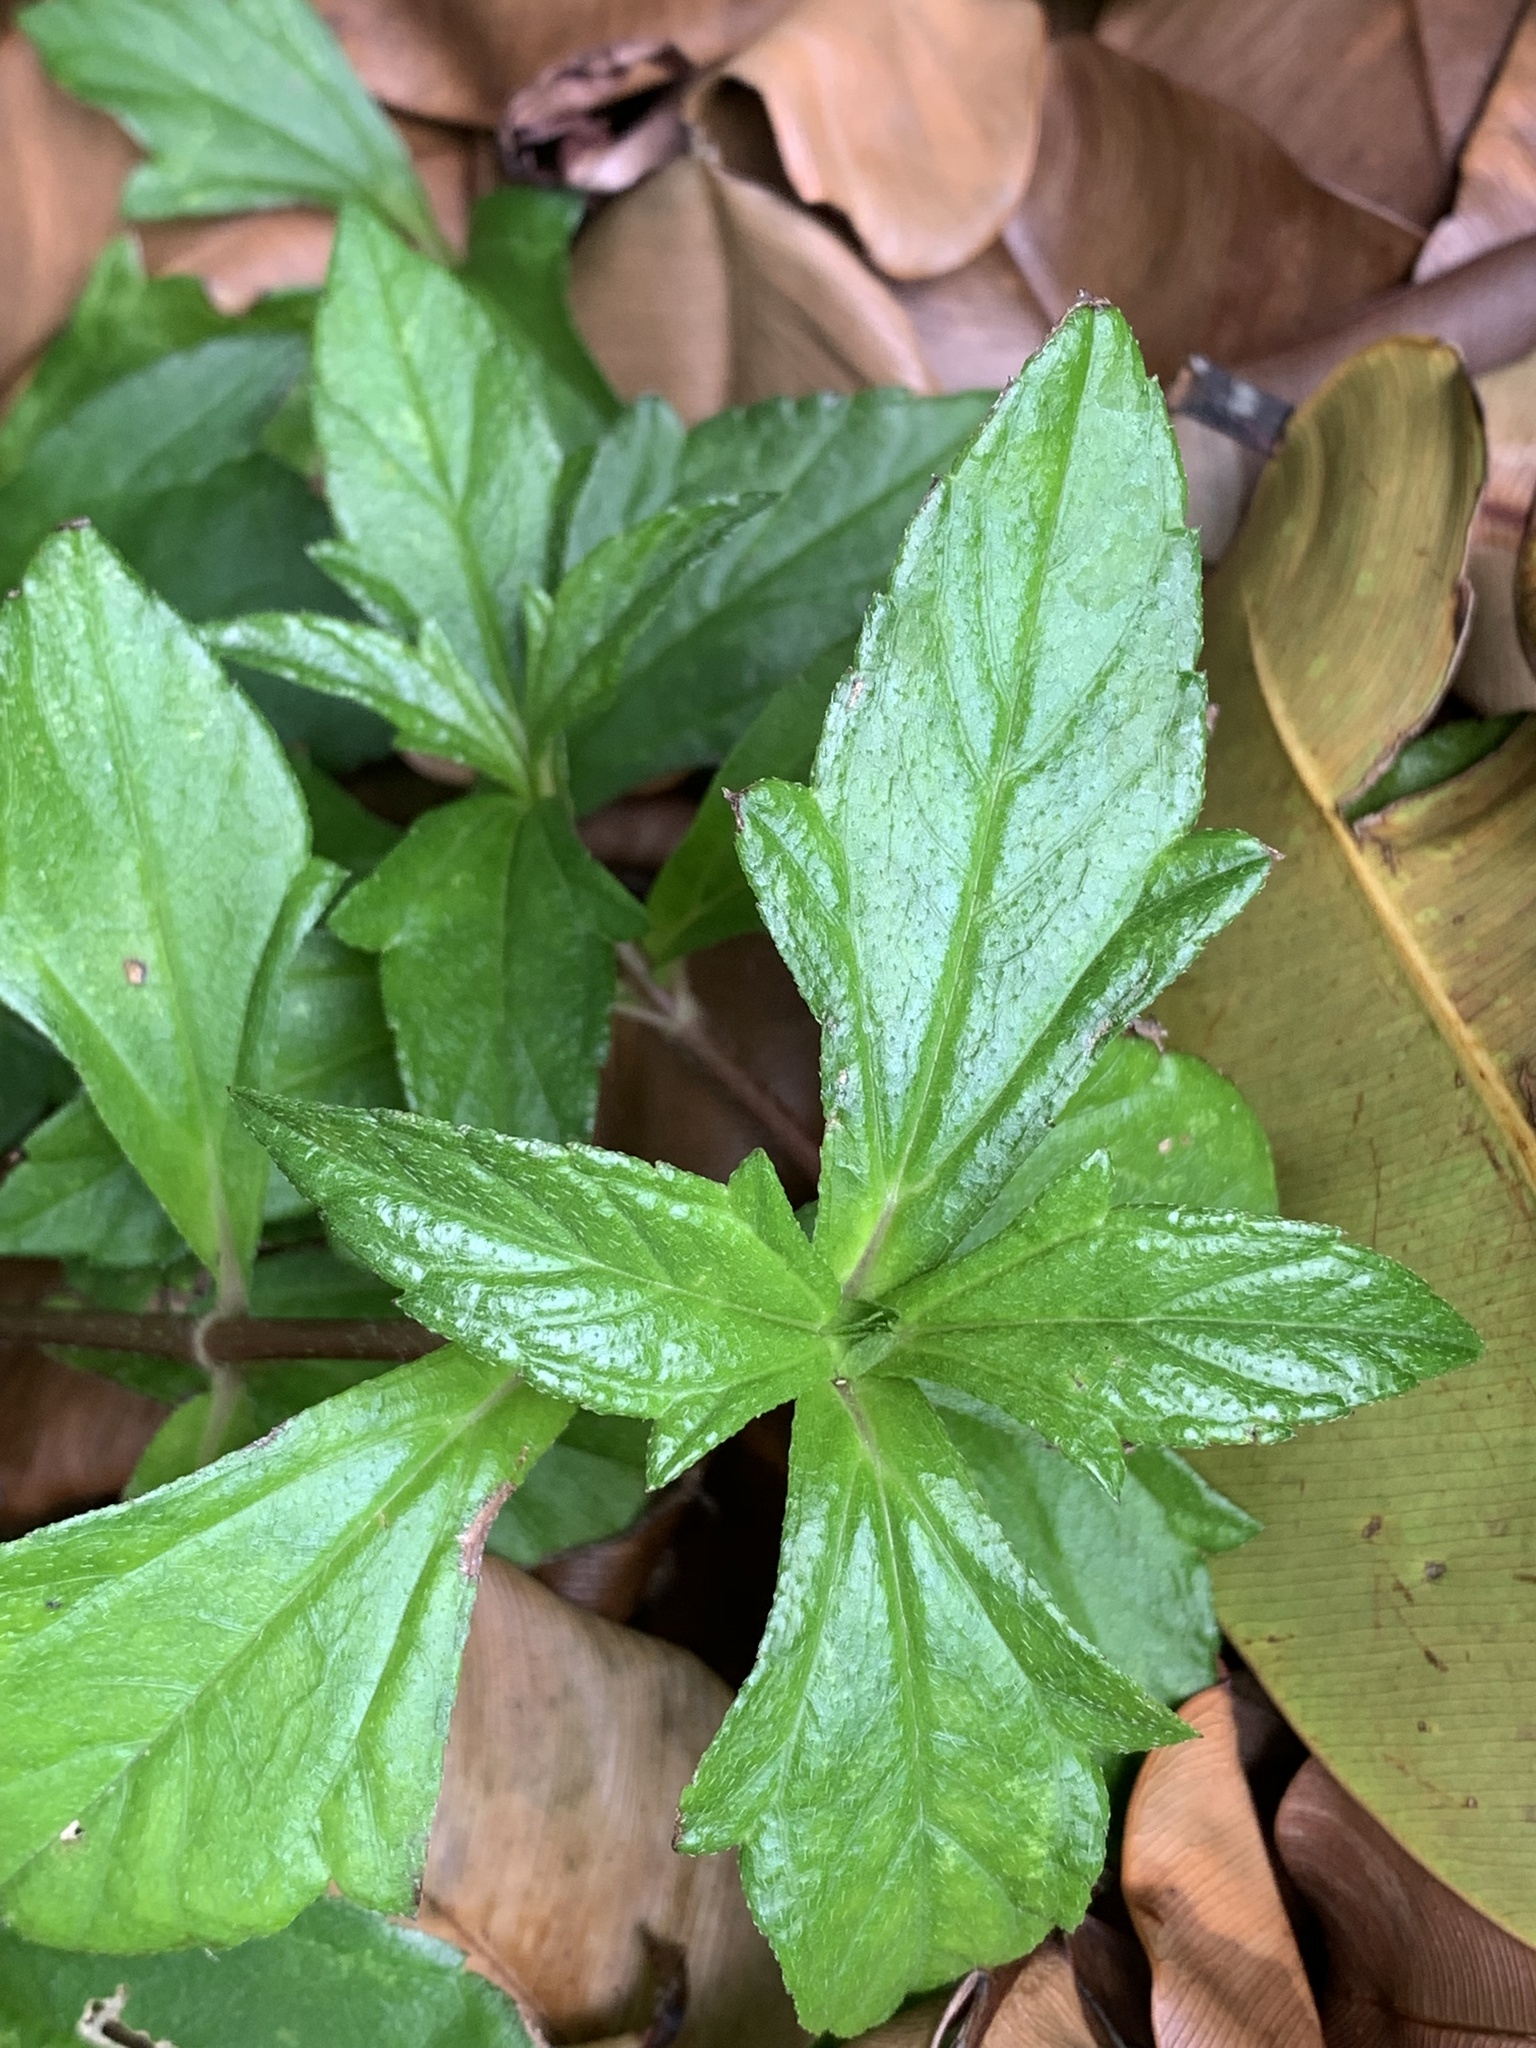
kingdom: Plantae
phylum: Tracheophyta
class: Magnoliopsida
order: Asterales
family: Asteraceae
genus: Sphagneticola
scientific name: Sphagneticola trilobata
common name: Bay biscayne creeping-oxeye
